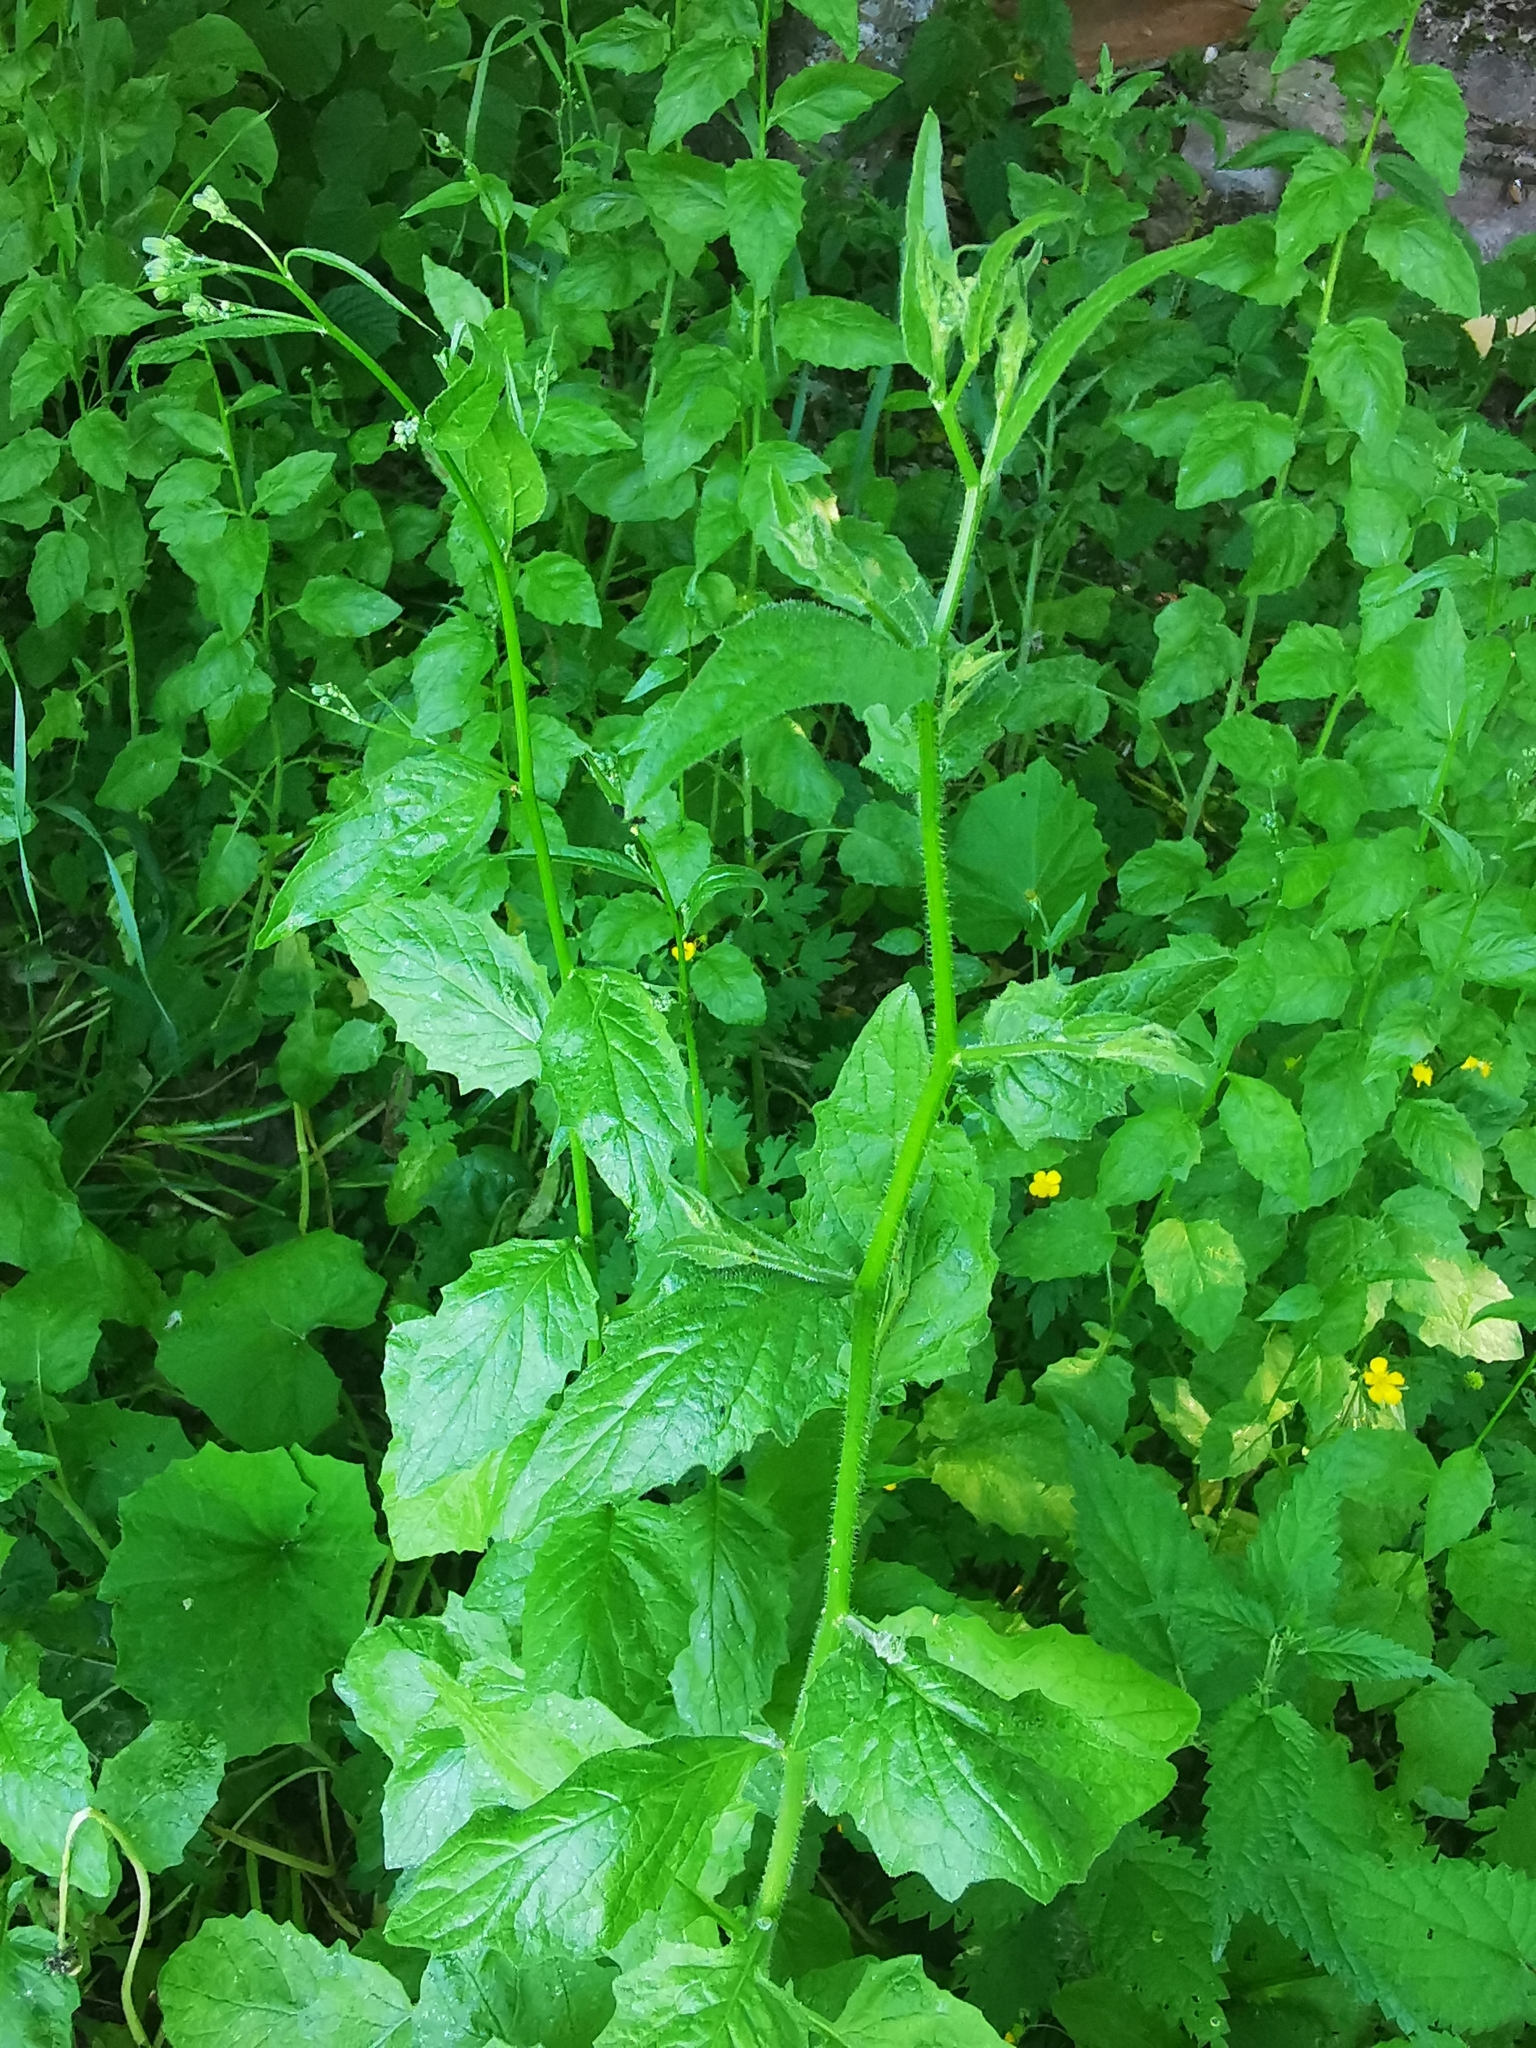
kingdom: Plantae
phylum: Tracheophyta
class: Magnoliopsida
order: Asterales
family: Asteraceae
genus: Lapsana
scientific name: Lapsana communis
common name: Nipplewort
